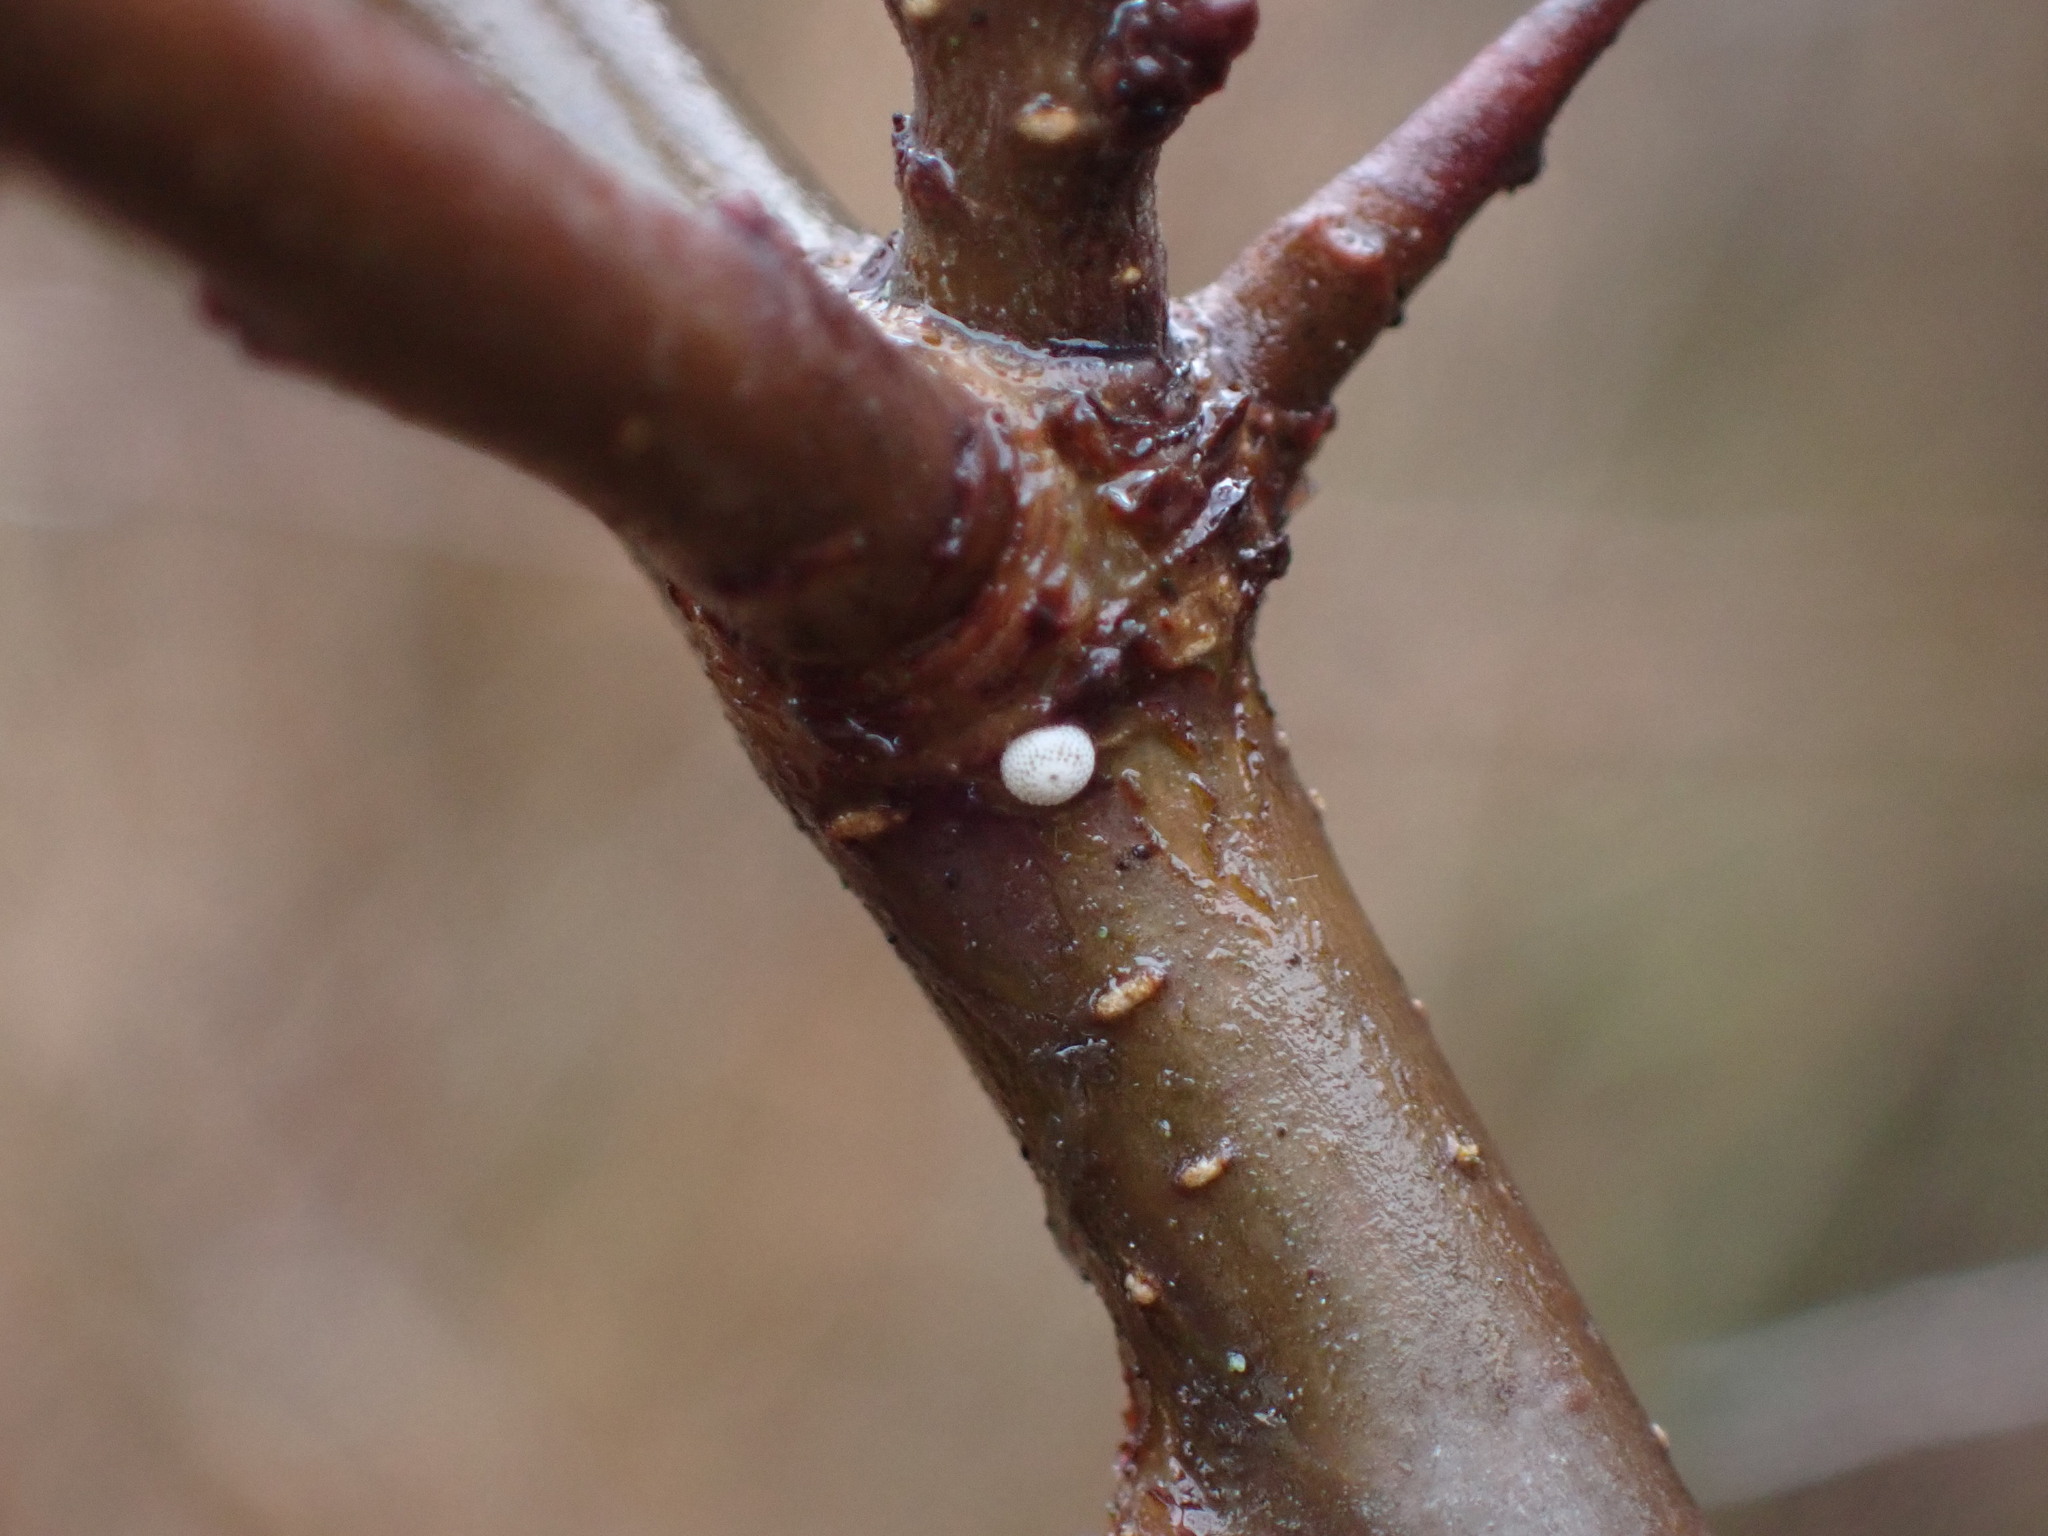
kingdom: Animalia
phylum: Arthropoda
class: Insecta
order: Lepidoptera
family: Lycaenidae
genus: Thecla
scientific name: Thecla betulae
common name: Brown hairstreak
